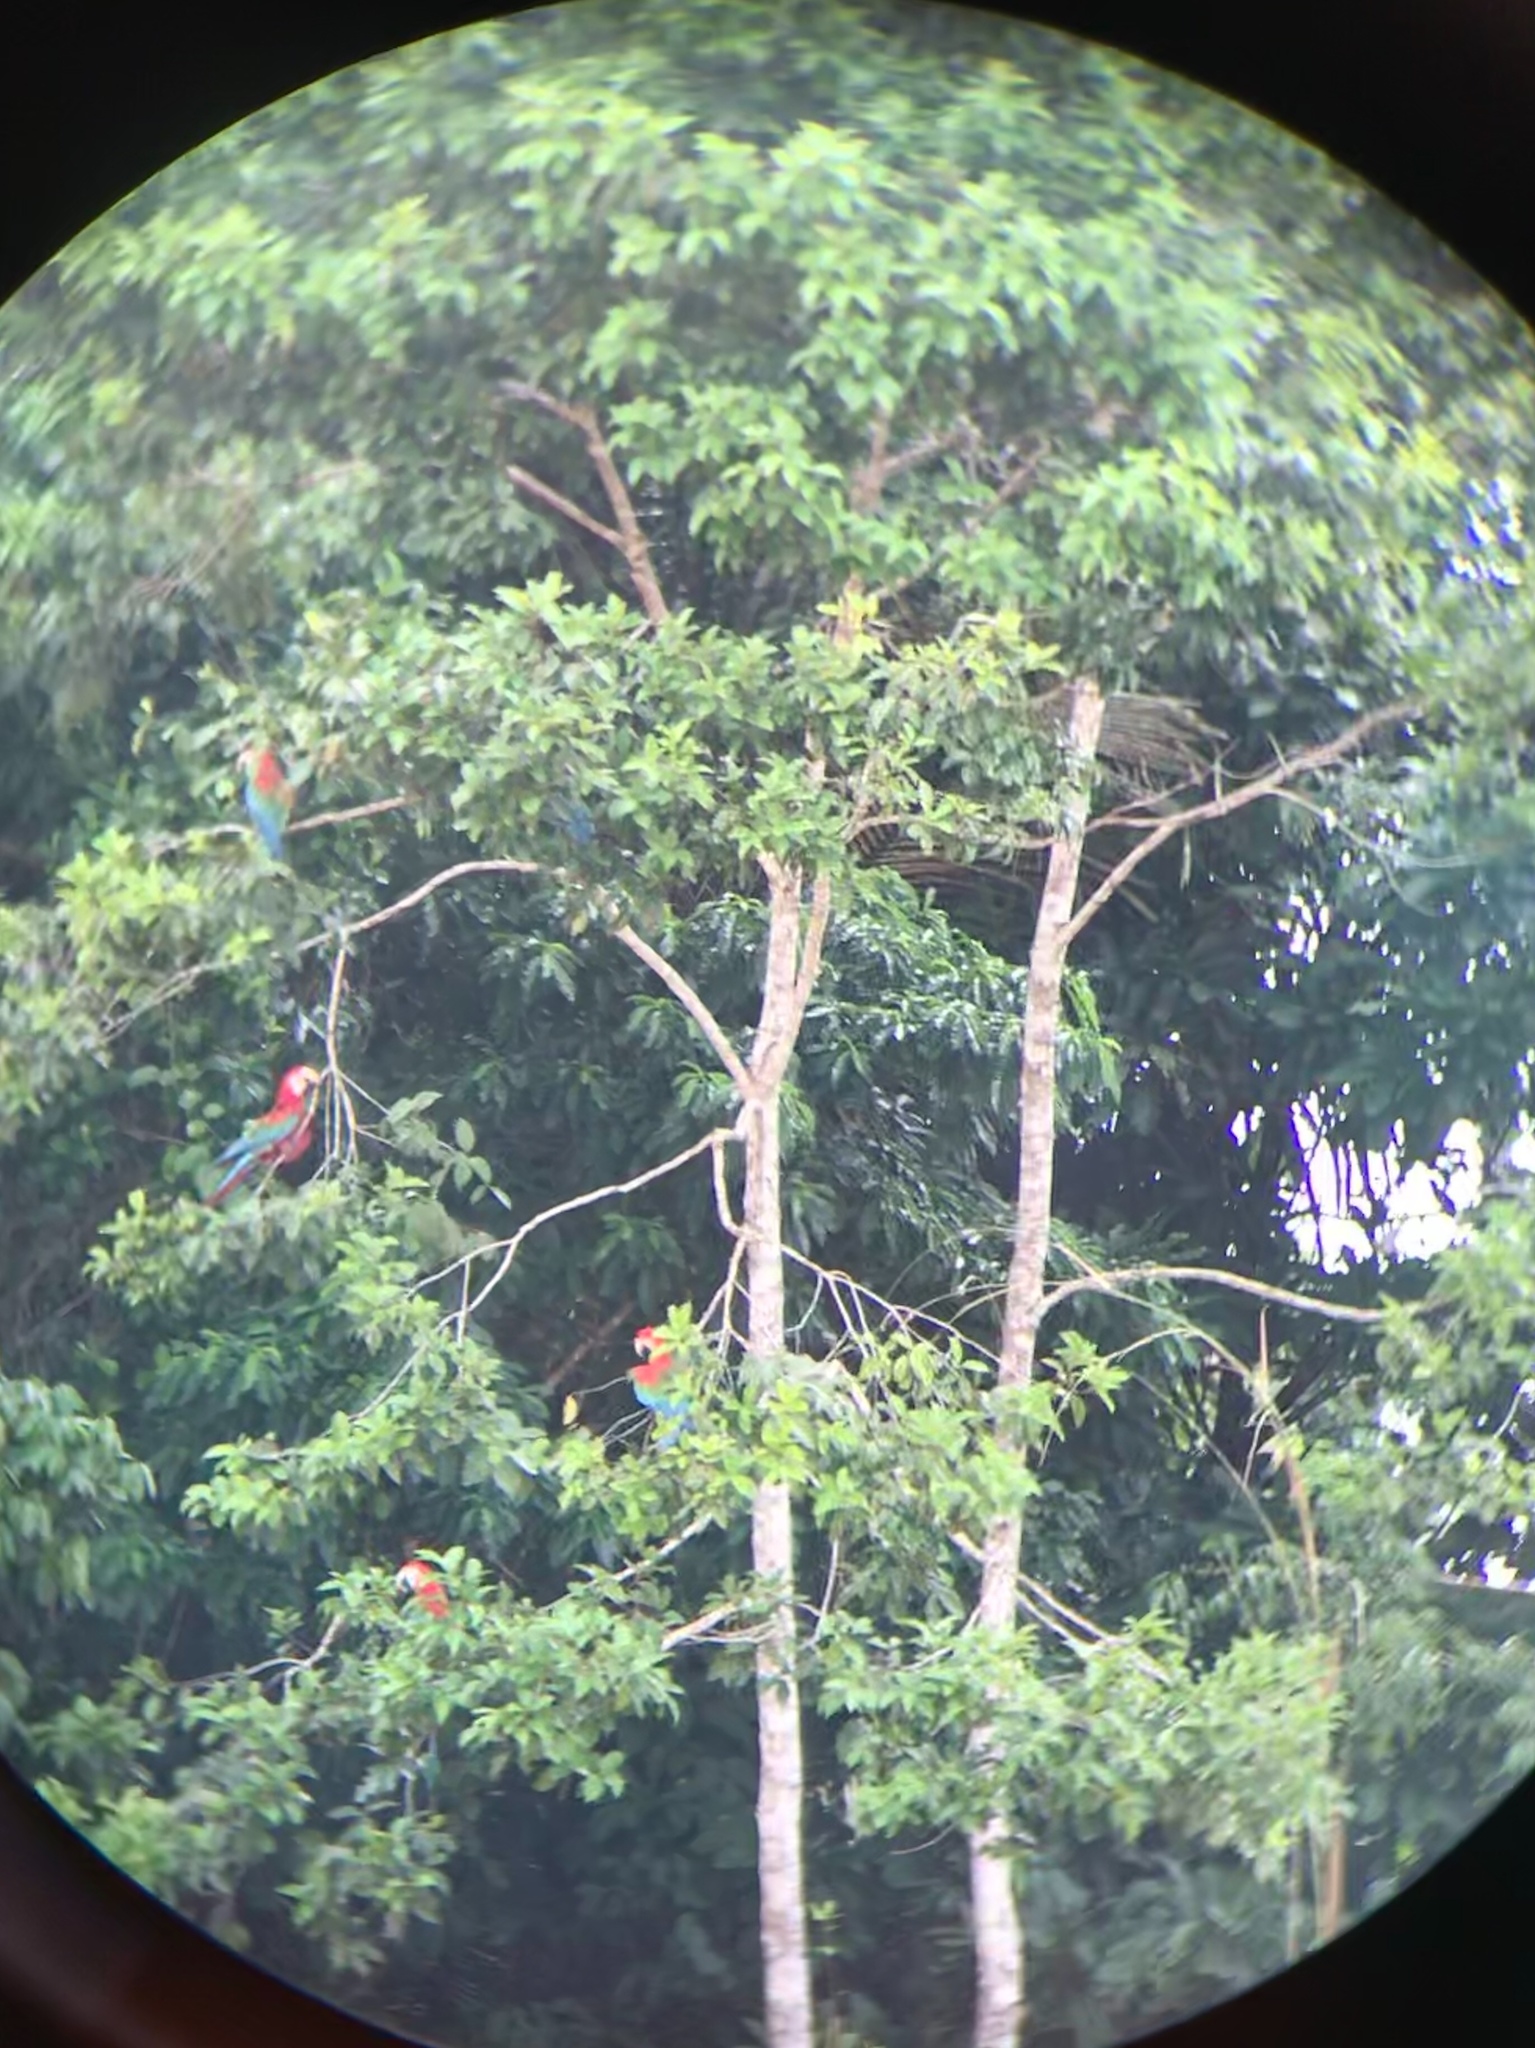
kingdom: Animalia
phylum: Chordata
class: Aves
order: Psittaciformes
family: Psittacidae
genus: Ara
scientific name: Ara chloropterus
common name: Red-and-green macaw
